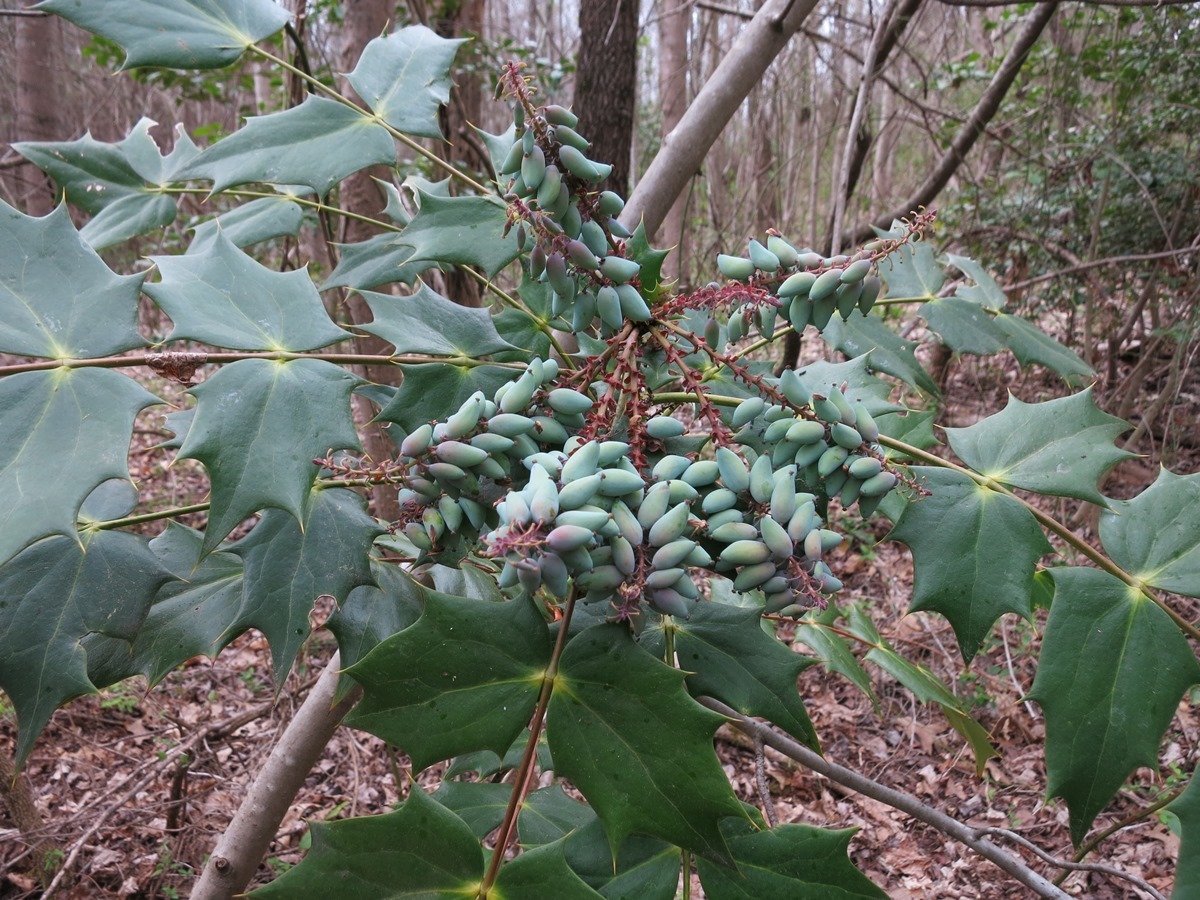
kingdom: Plantae
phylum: Tracheophyta
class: Magnoliopsida
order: Ranunculales
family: Berberidaceae
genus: Mahonia
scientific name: Mahonia bealei
